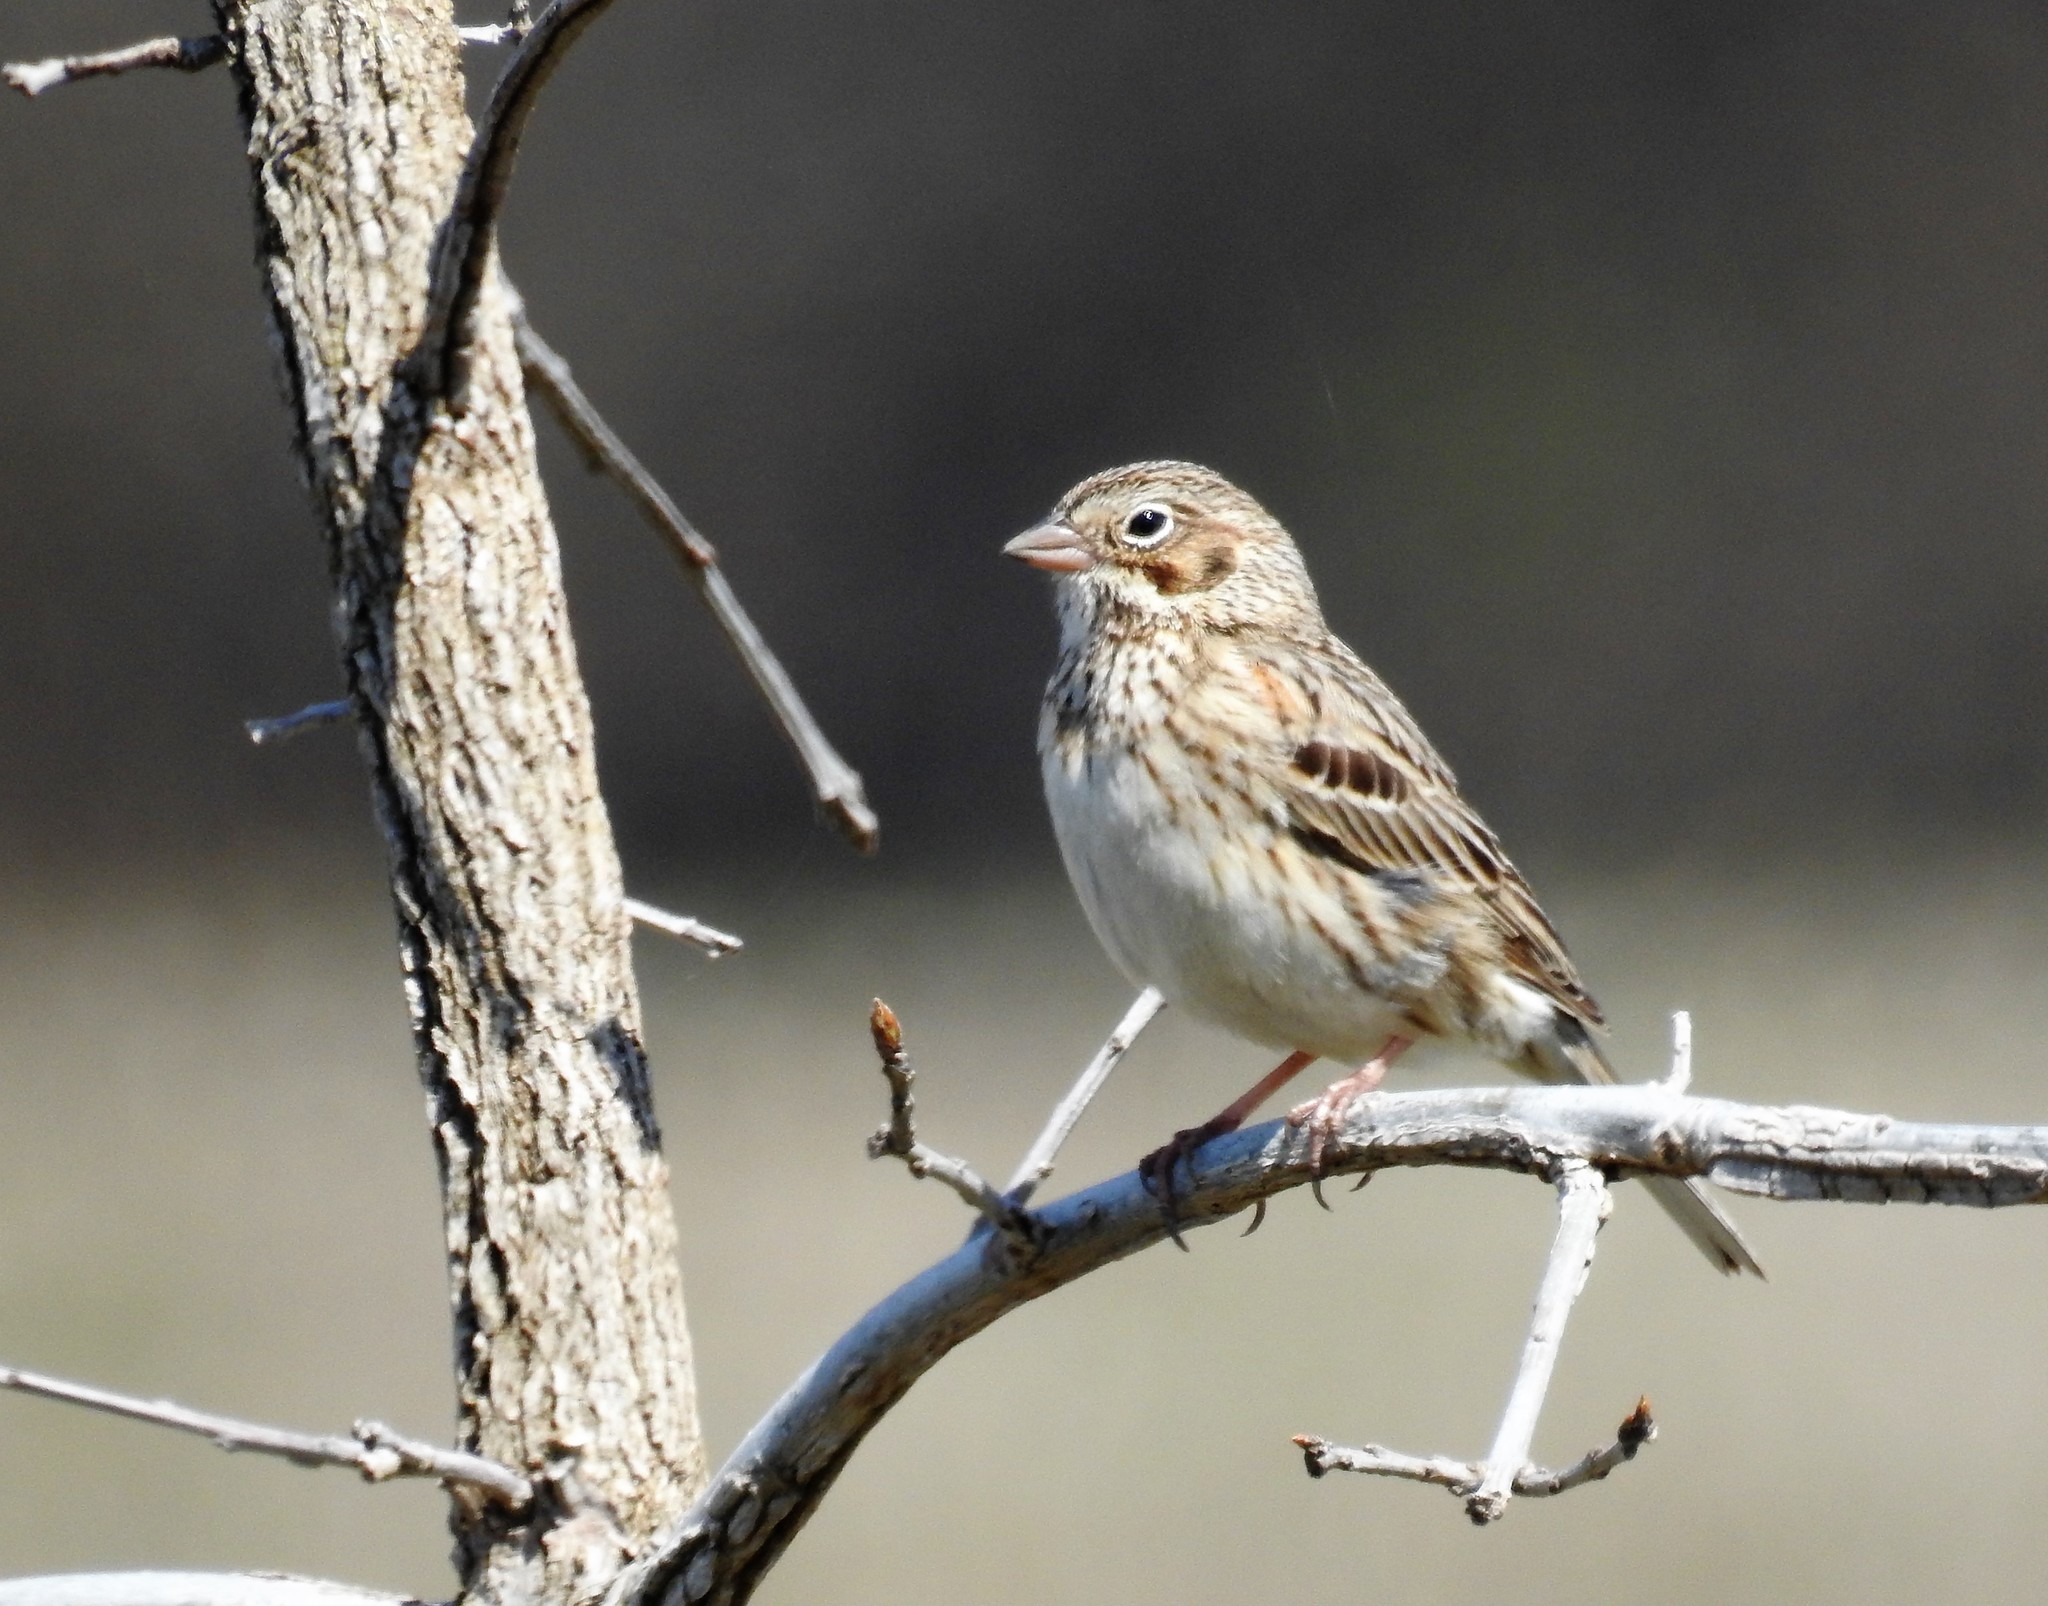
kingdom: Animalia
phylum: Chordata
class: Aves
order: Passeriformes
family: Passerellidae
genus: Pooecetes
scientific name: Pooecetes gramineus
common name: Vesper sparrow
